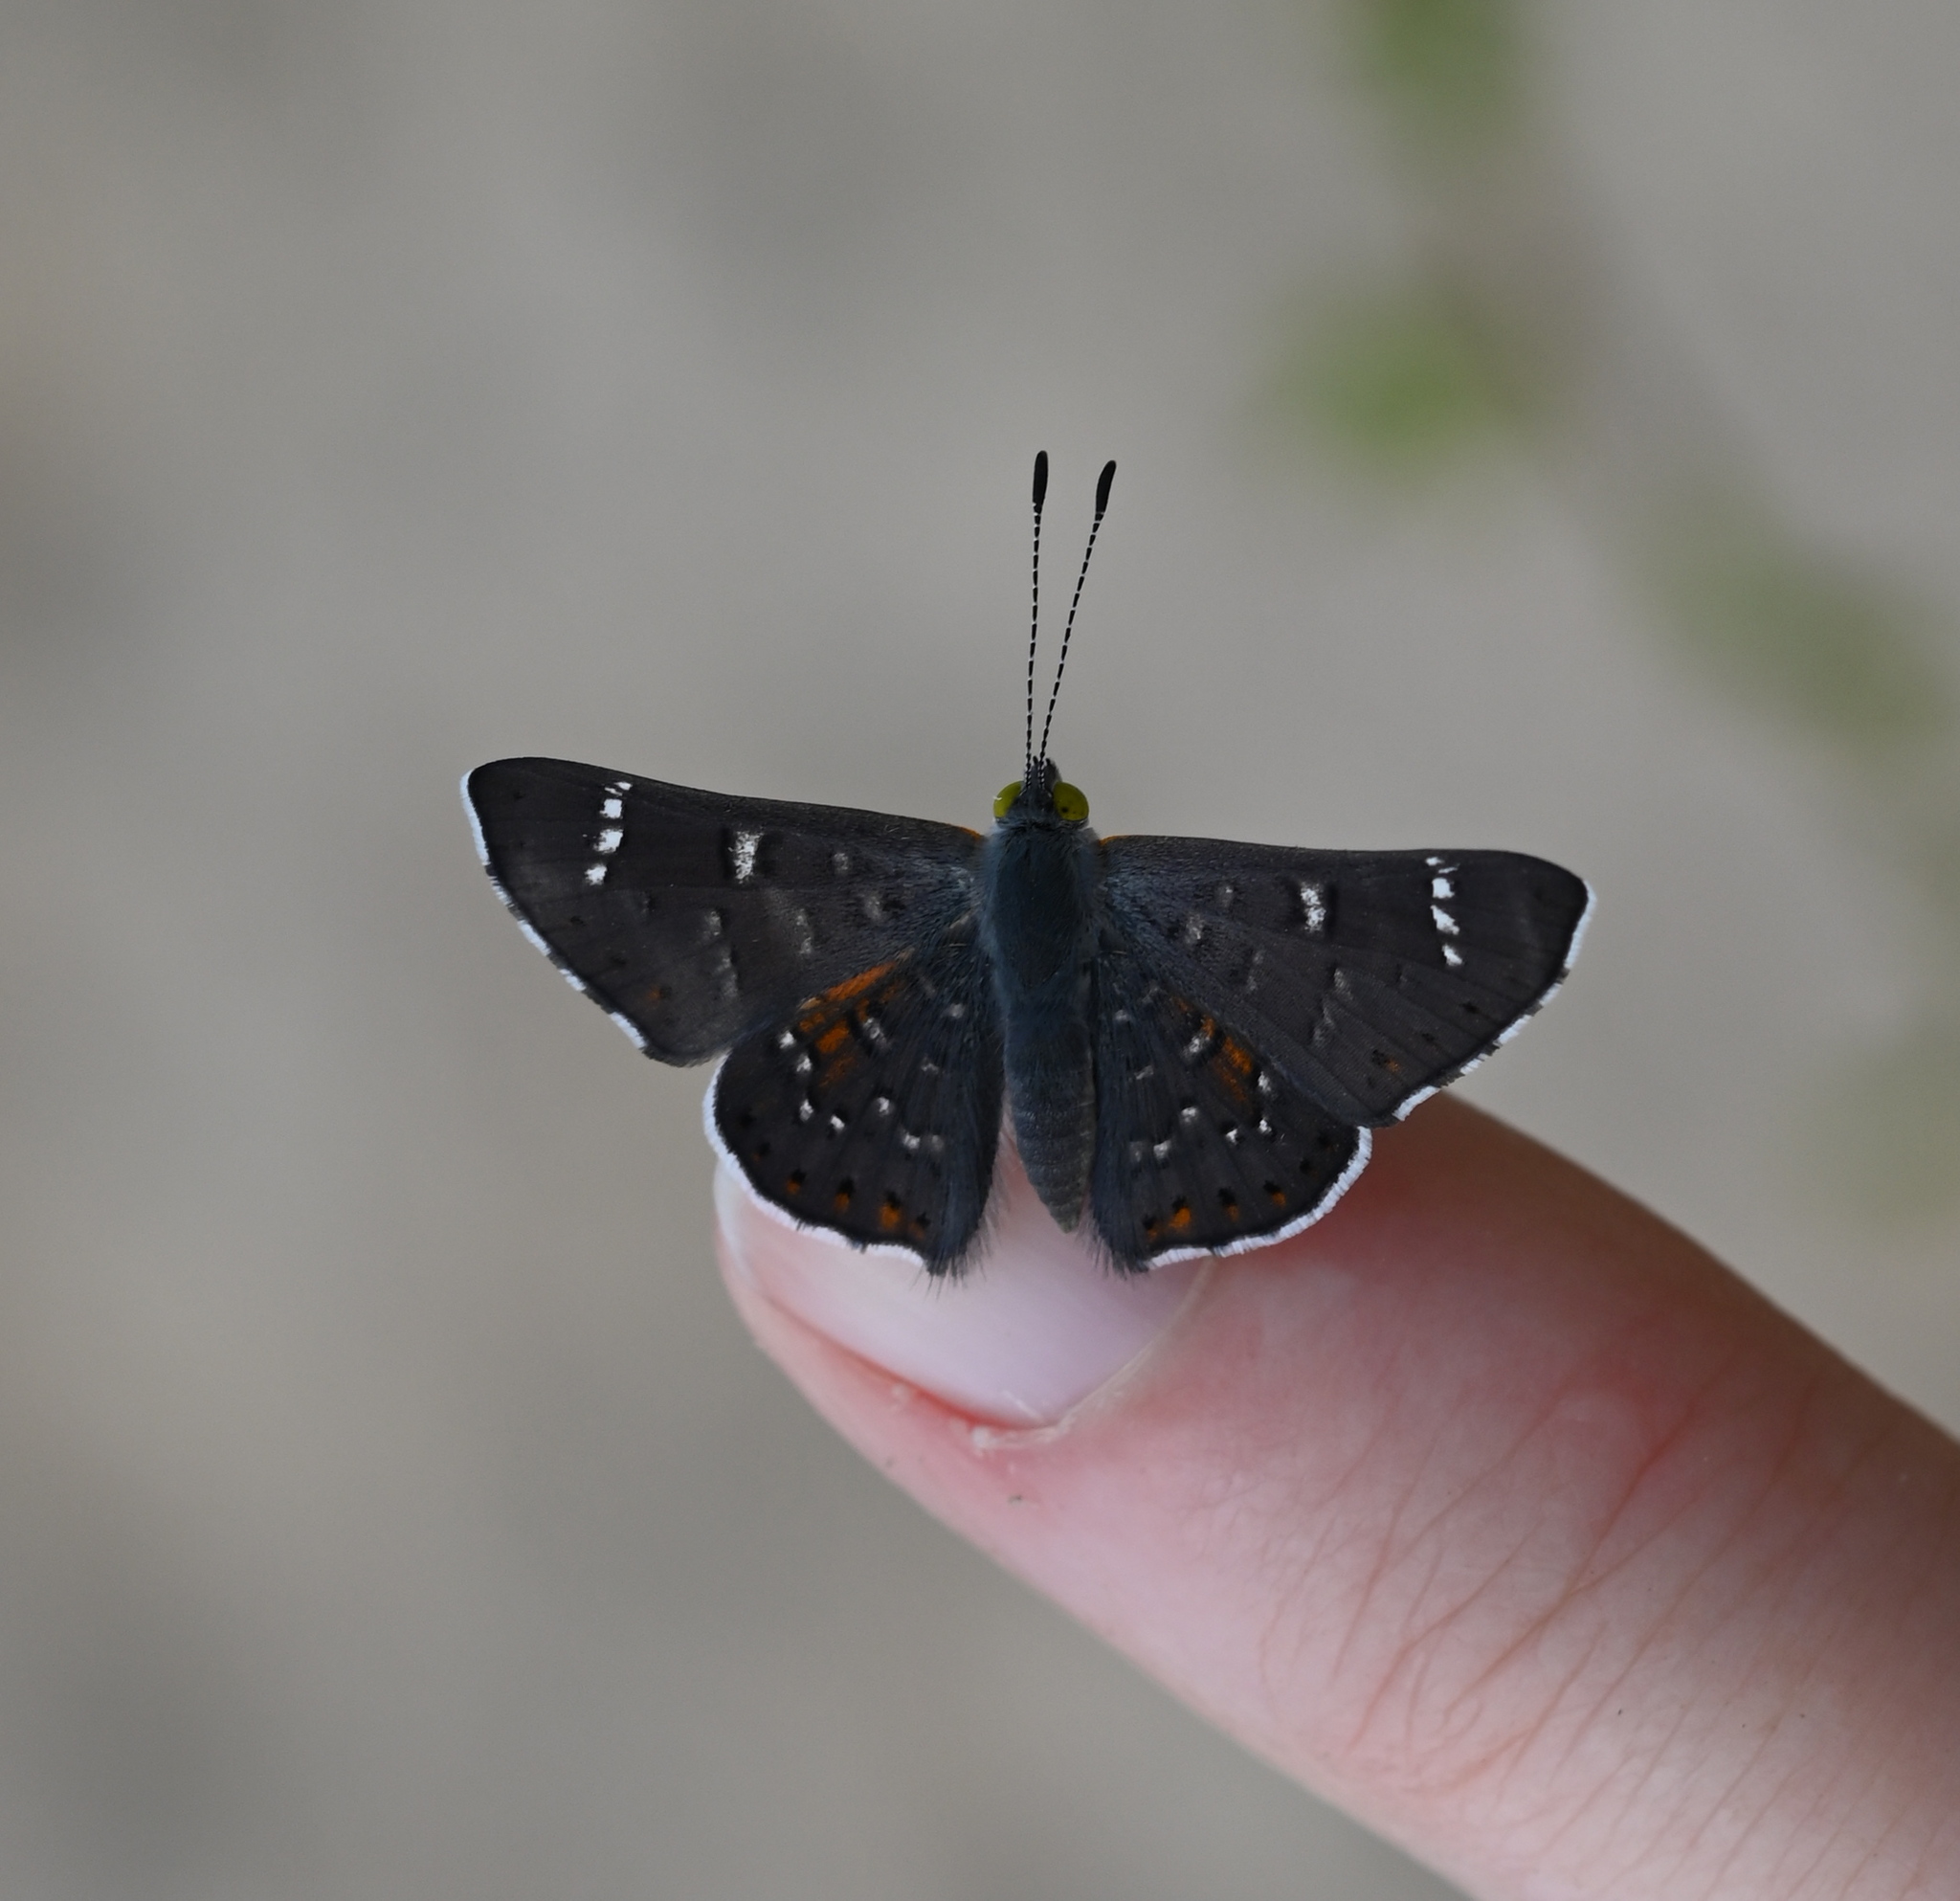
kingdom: Animalia
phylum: Arthropoda
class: Insecta
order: Lepidoptera
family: Riodinidae
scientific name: Riodinidae
